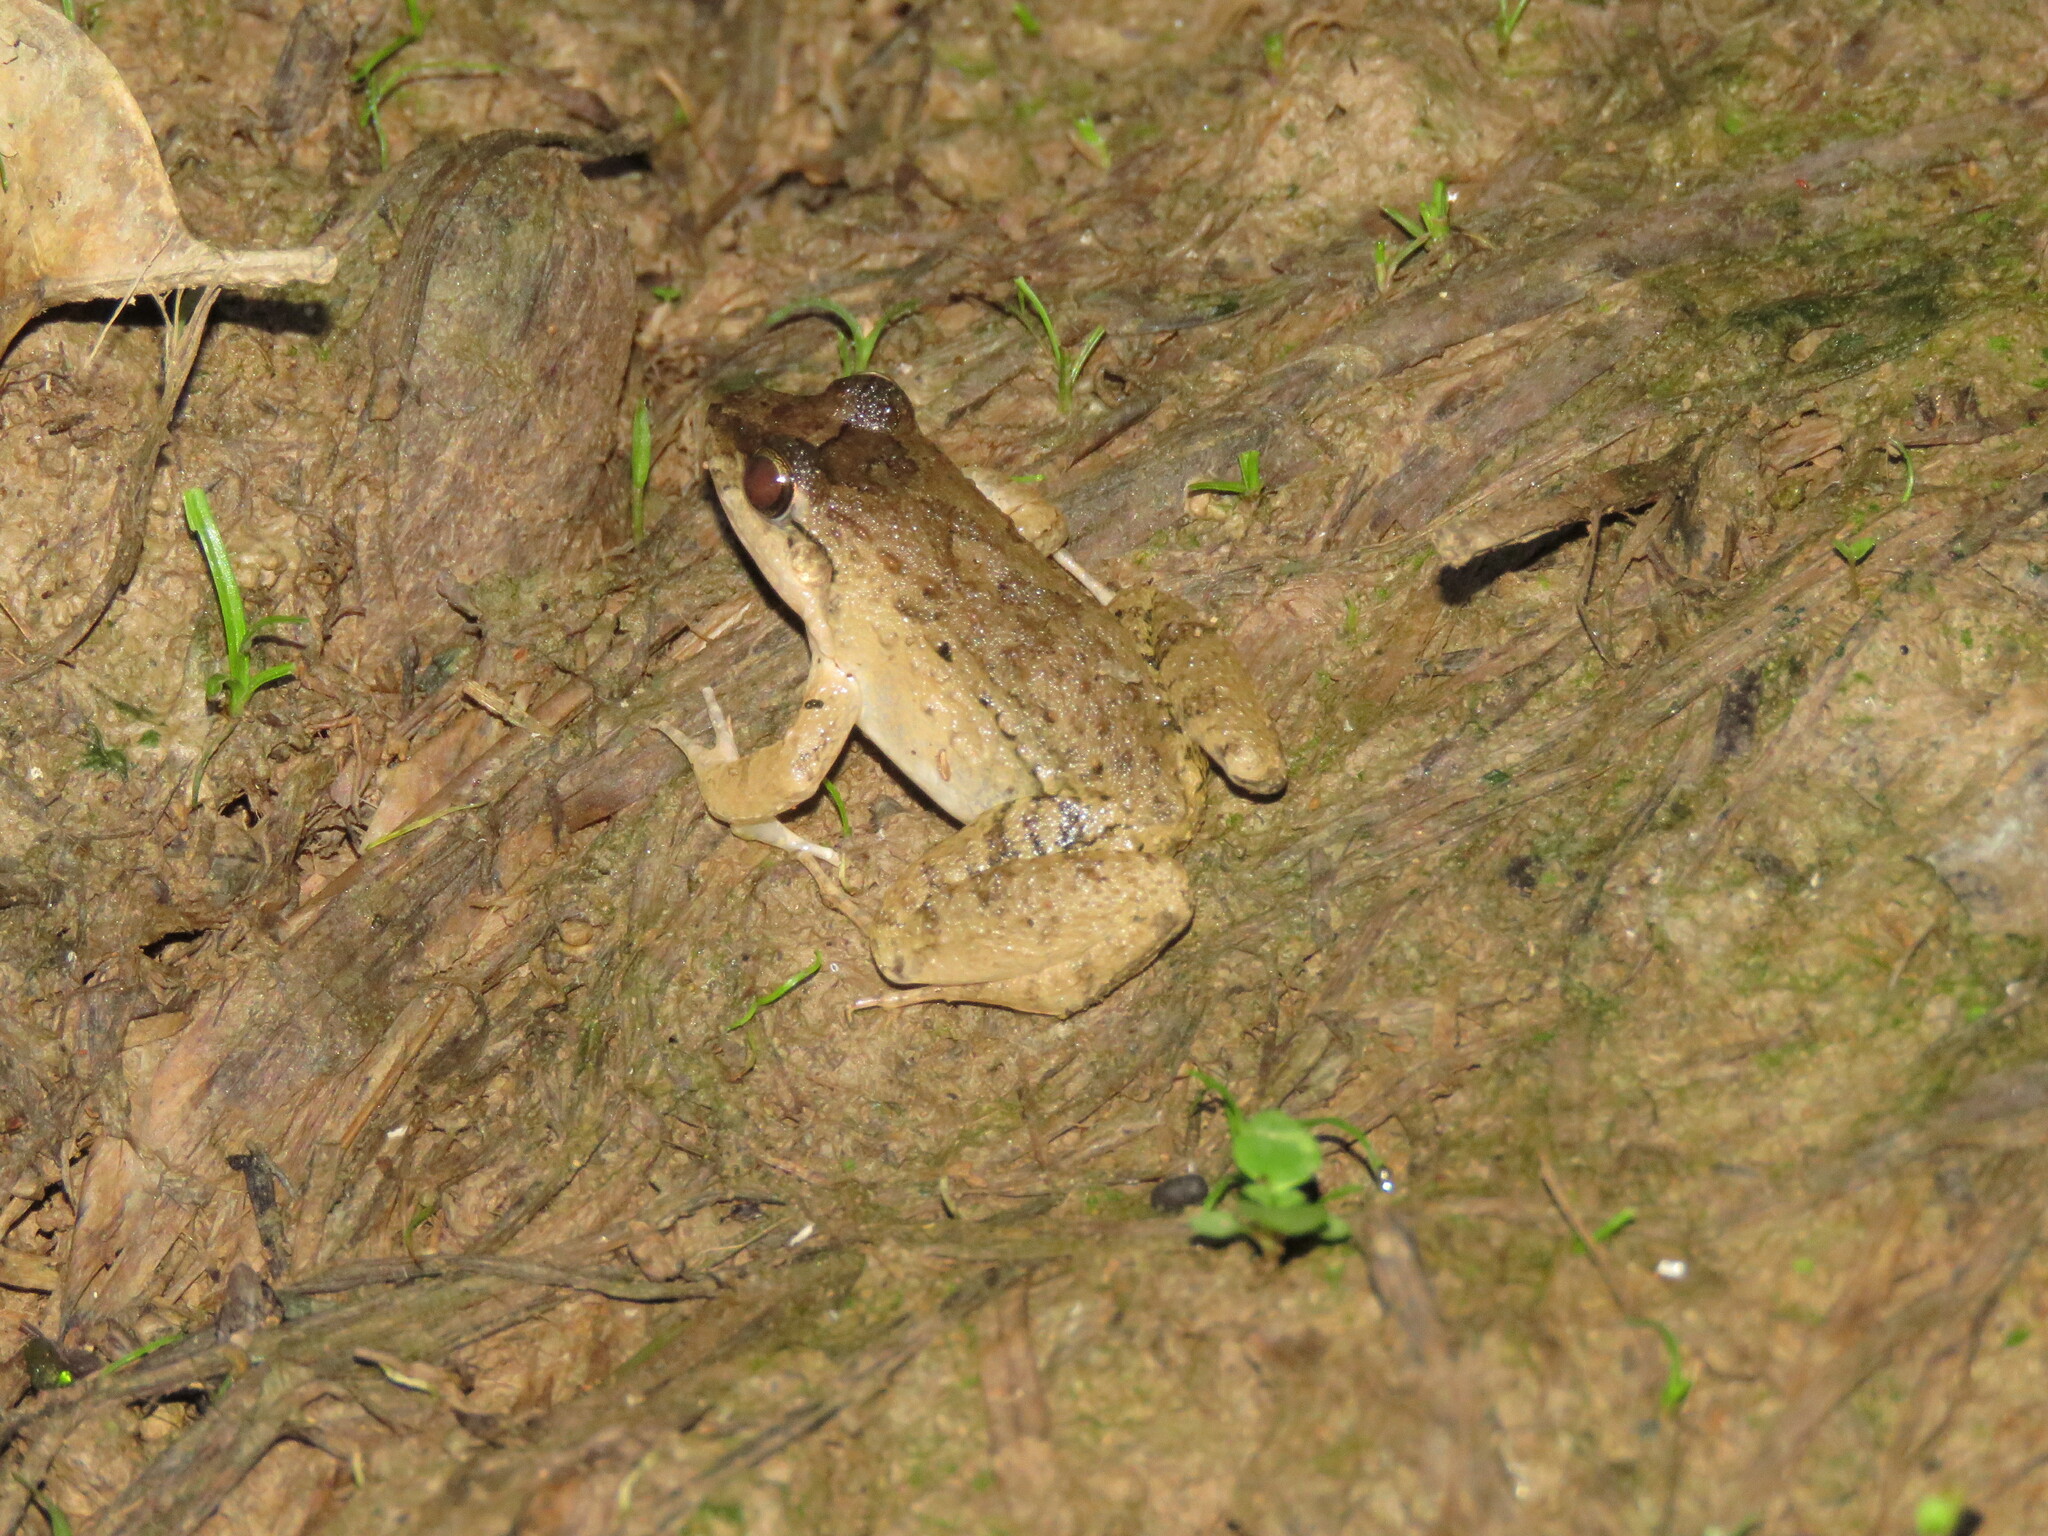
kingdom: Animalia
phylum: Chordata
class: Amphibia
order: Anura
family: Leptodactylidae
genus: Leptodactylus
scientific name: Leptodactylus petersii
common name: Peters' thin-toed frog
